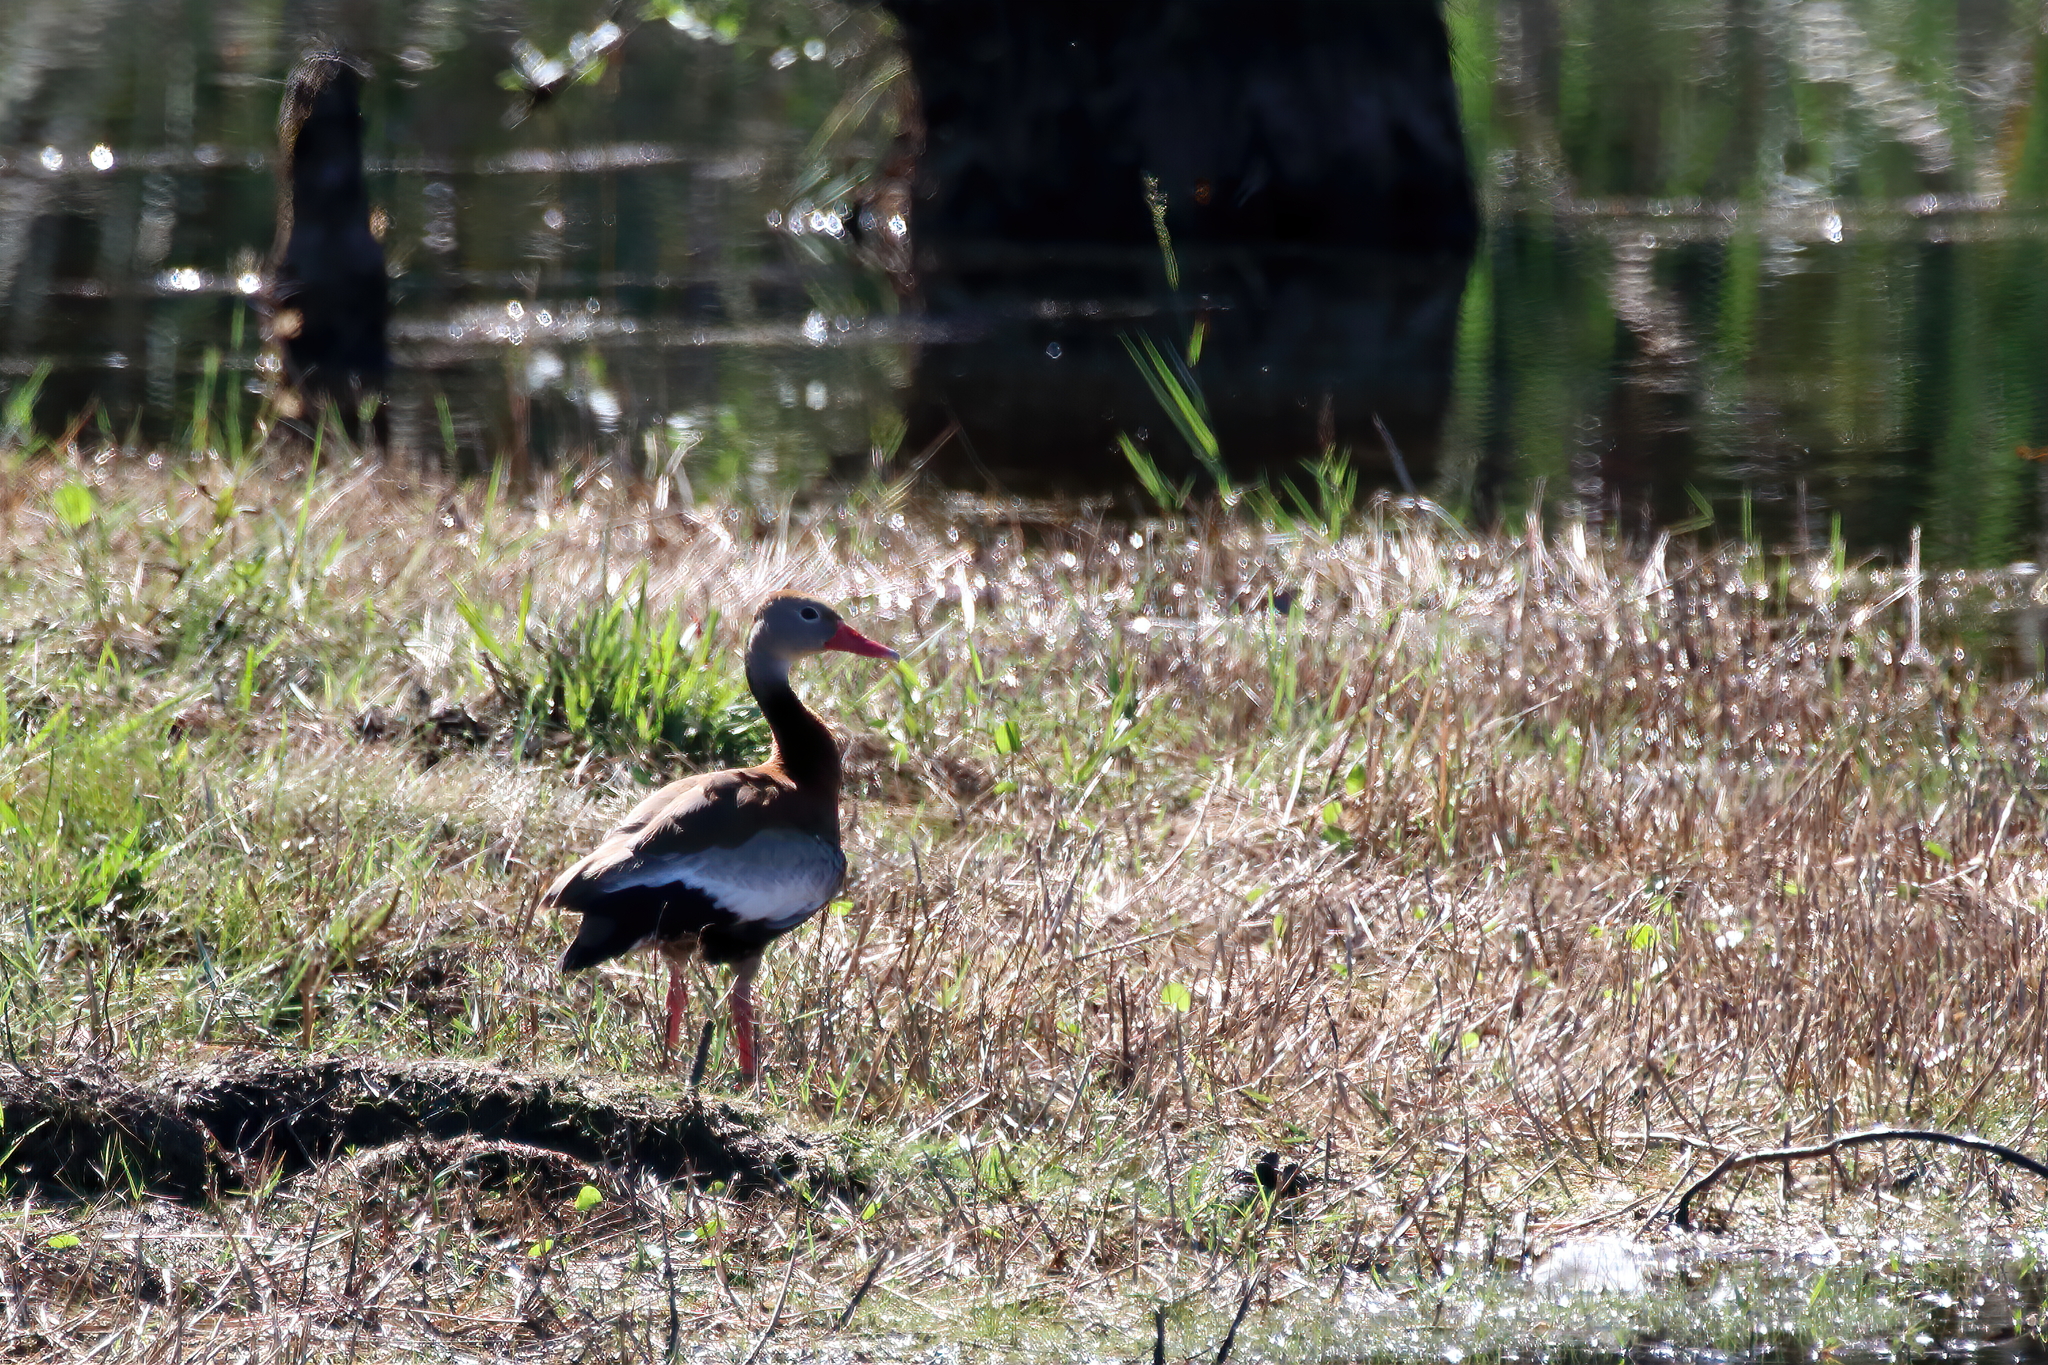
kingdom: Animalia
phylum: Chordata
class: Aves
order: Anseriformes
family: Anatidae
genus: Dendrocygna
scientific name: Dendrocygna autumnalis
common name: Black-bellied whistling duck
